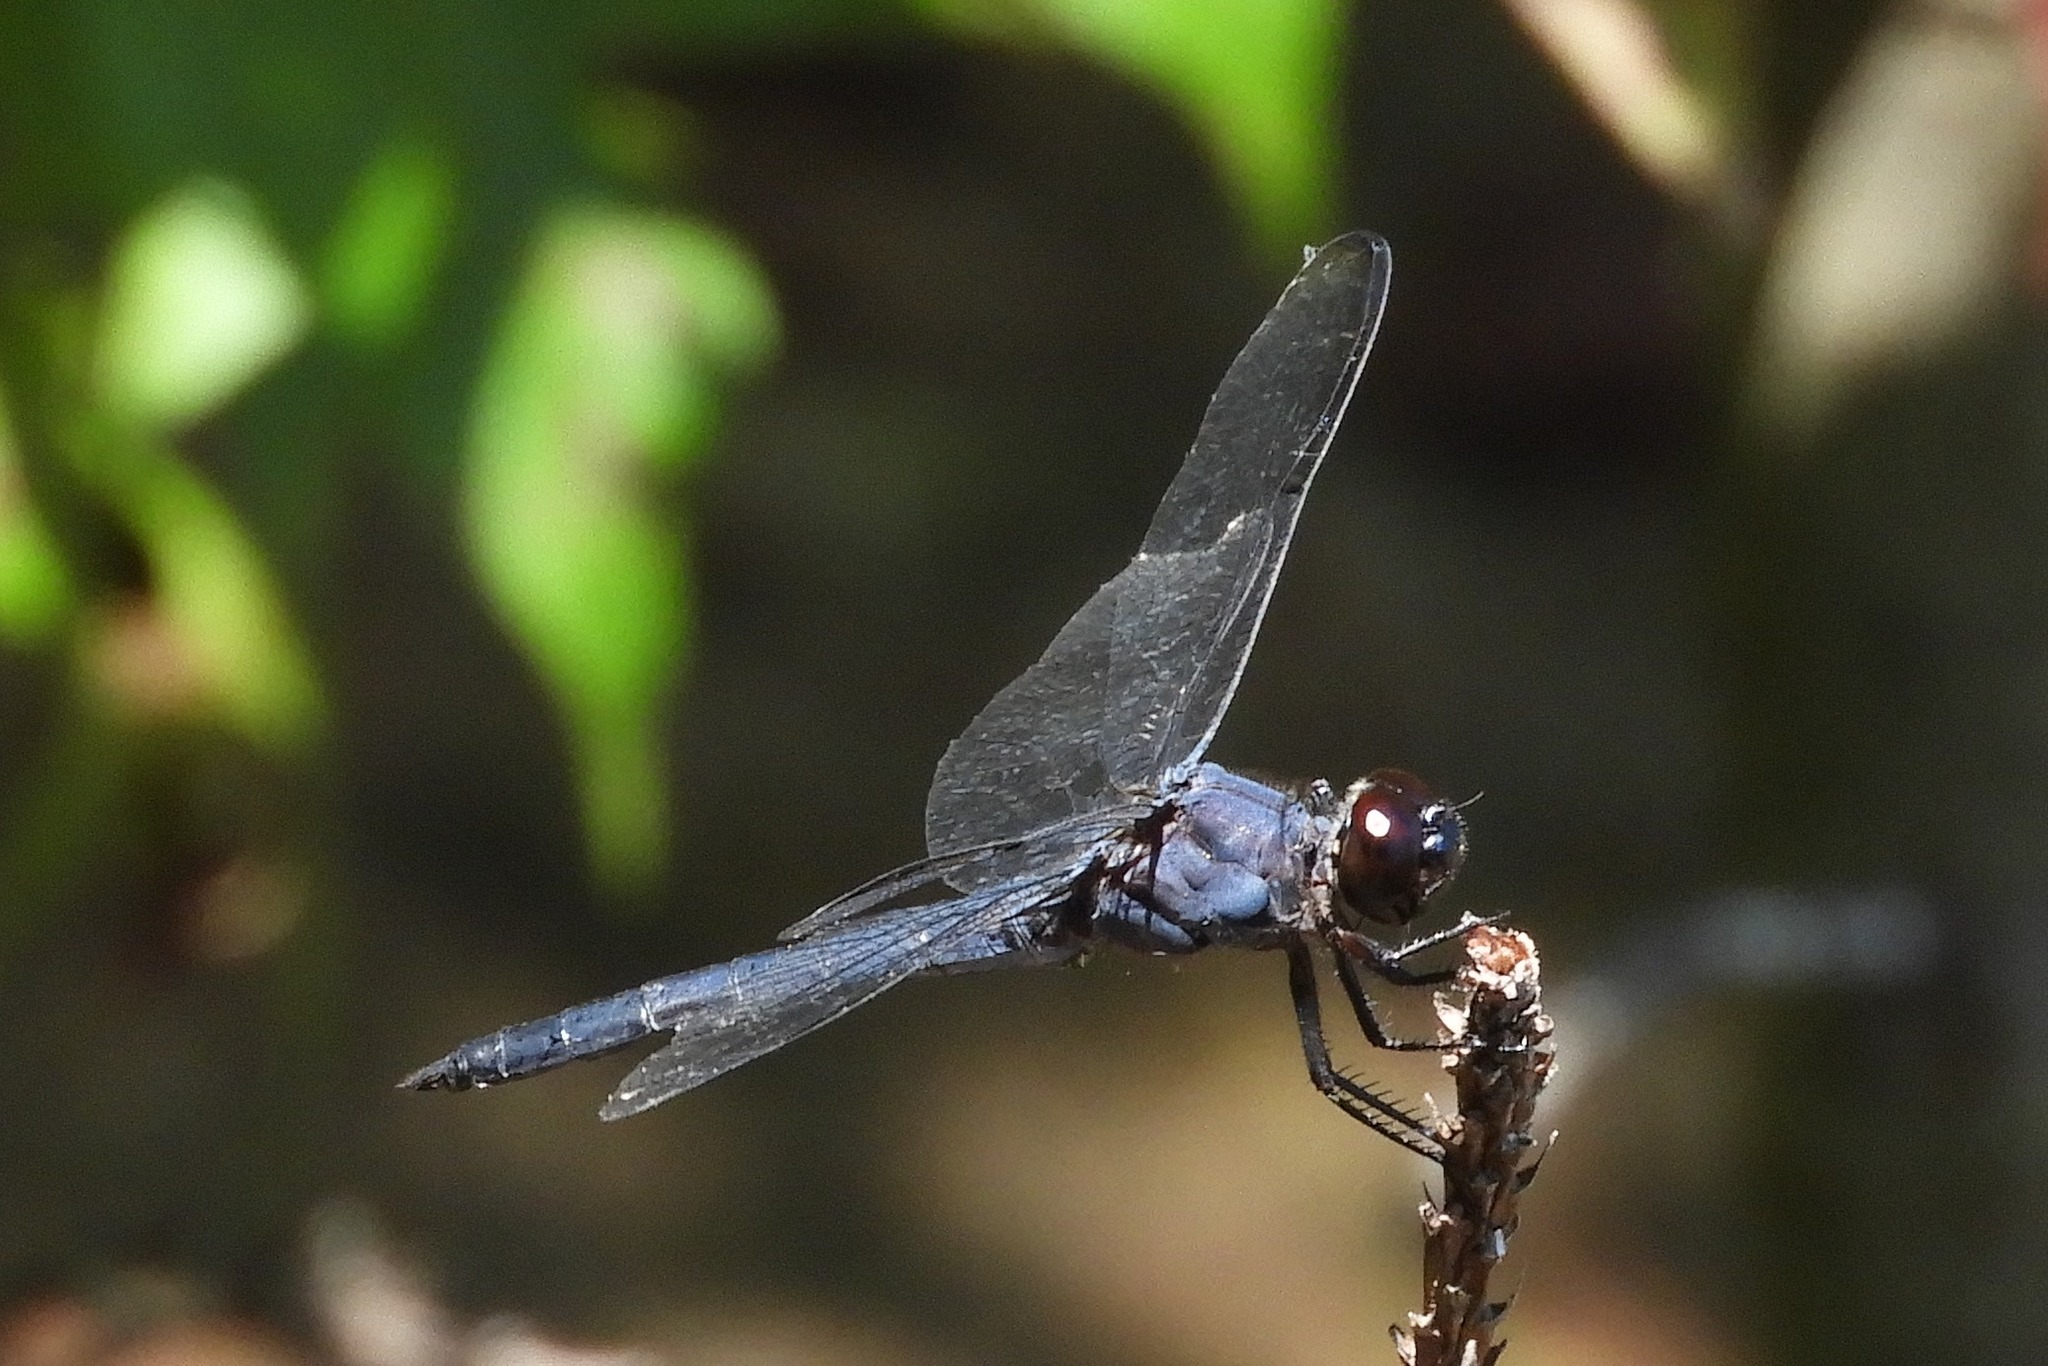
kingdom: Animalia
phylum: Arthropoda
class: Insecta
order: Odonata
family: Libellulidae
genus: Libellula
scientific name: Libellula incesta
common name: Slaty skimmer
